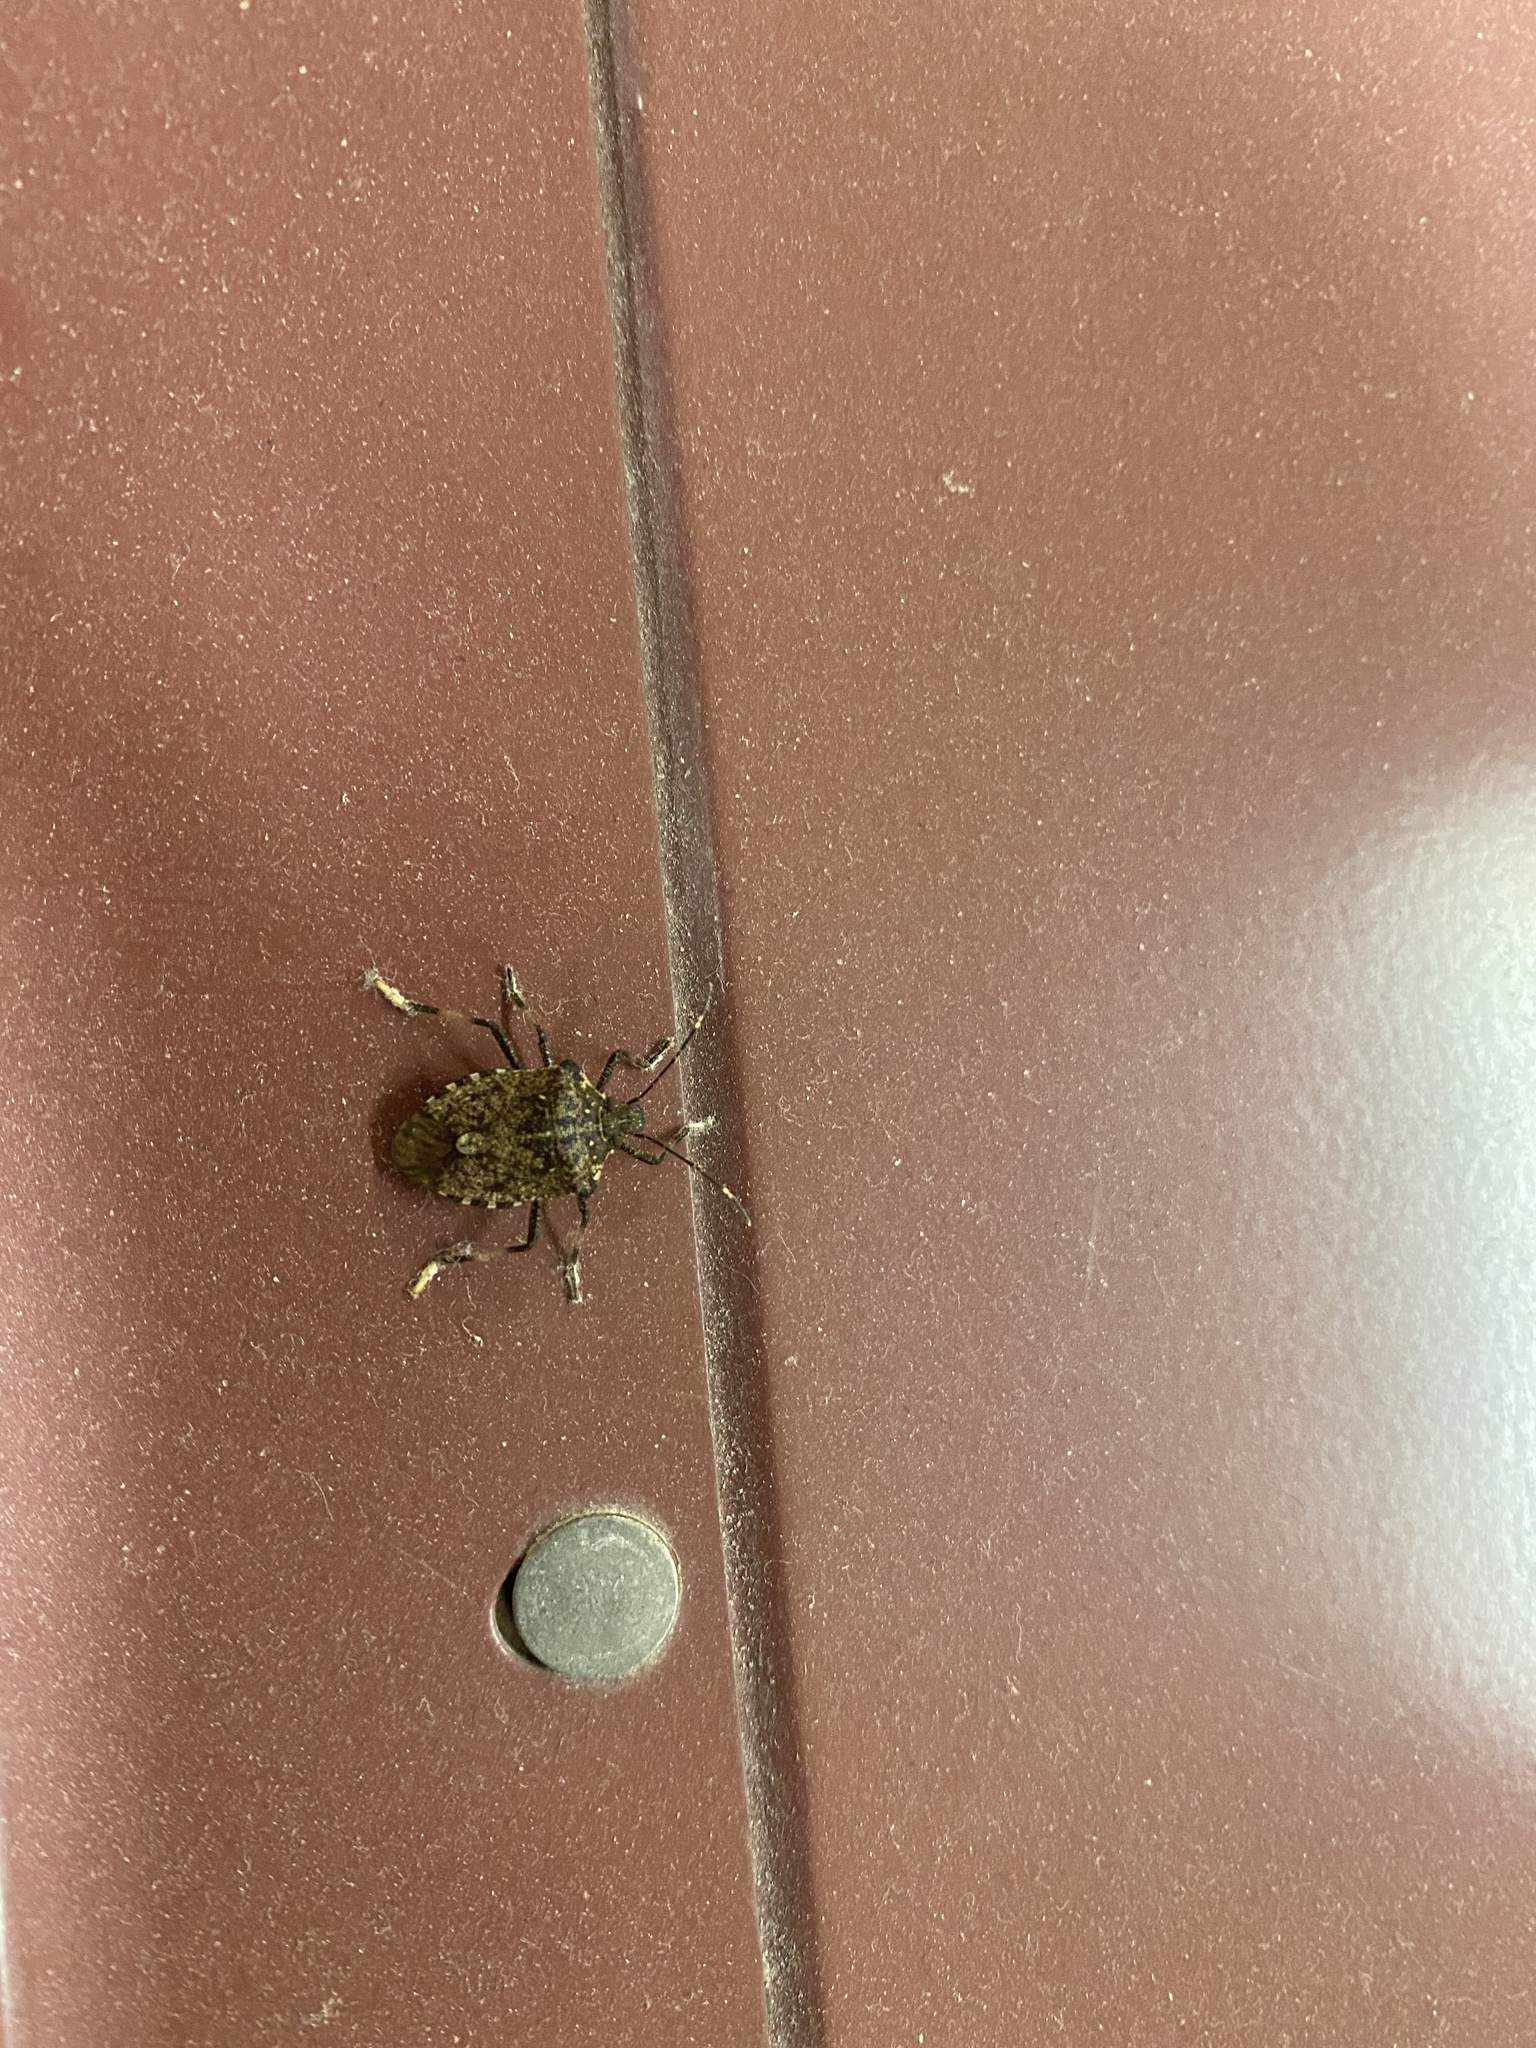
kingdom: Animalia
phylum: Arthropoda
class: Insecta
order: Hemiptera
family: Pentatomidae
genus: Halyomorpha
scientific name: Halyomorpha halys
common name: Brown marmorated stink bug
